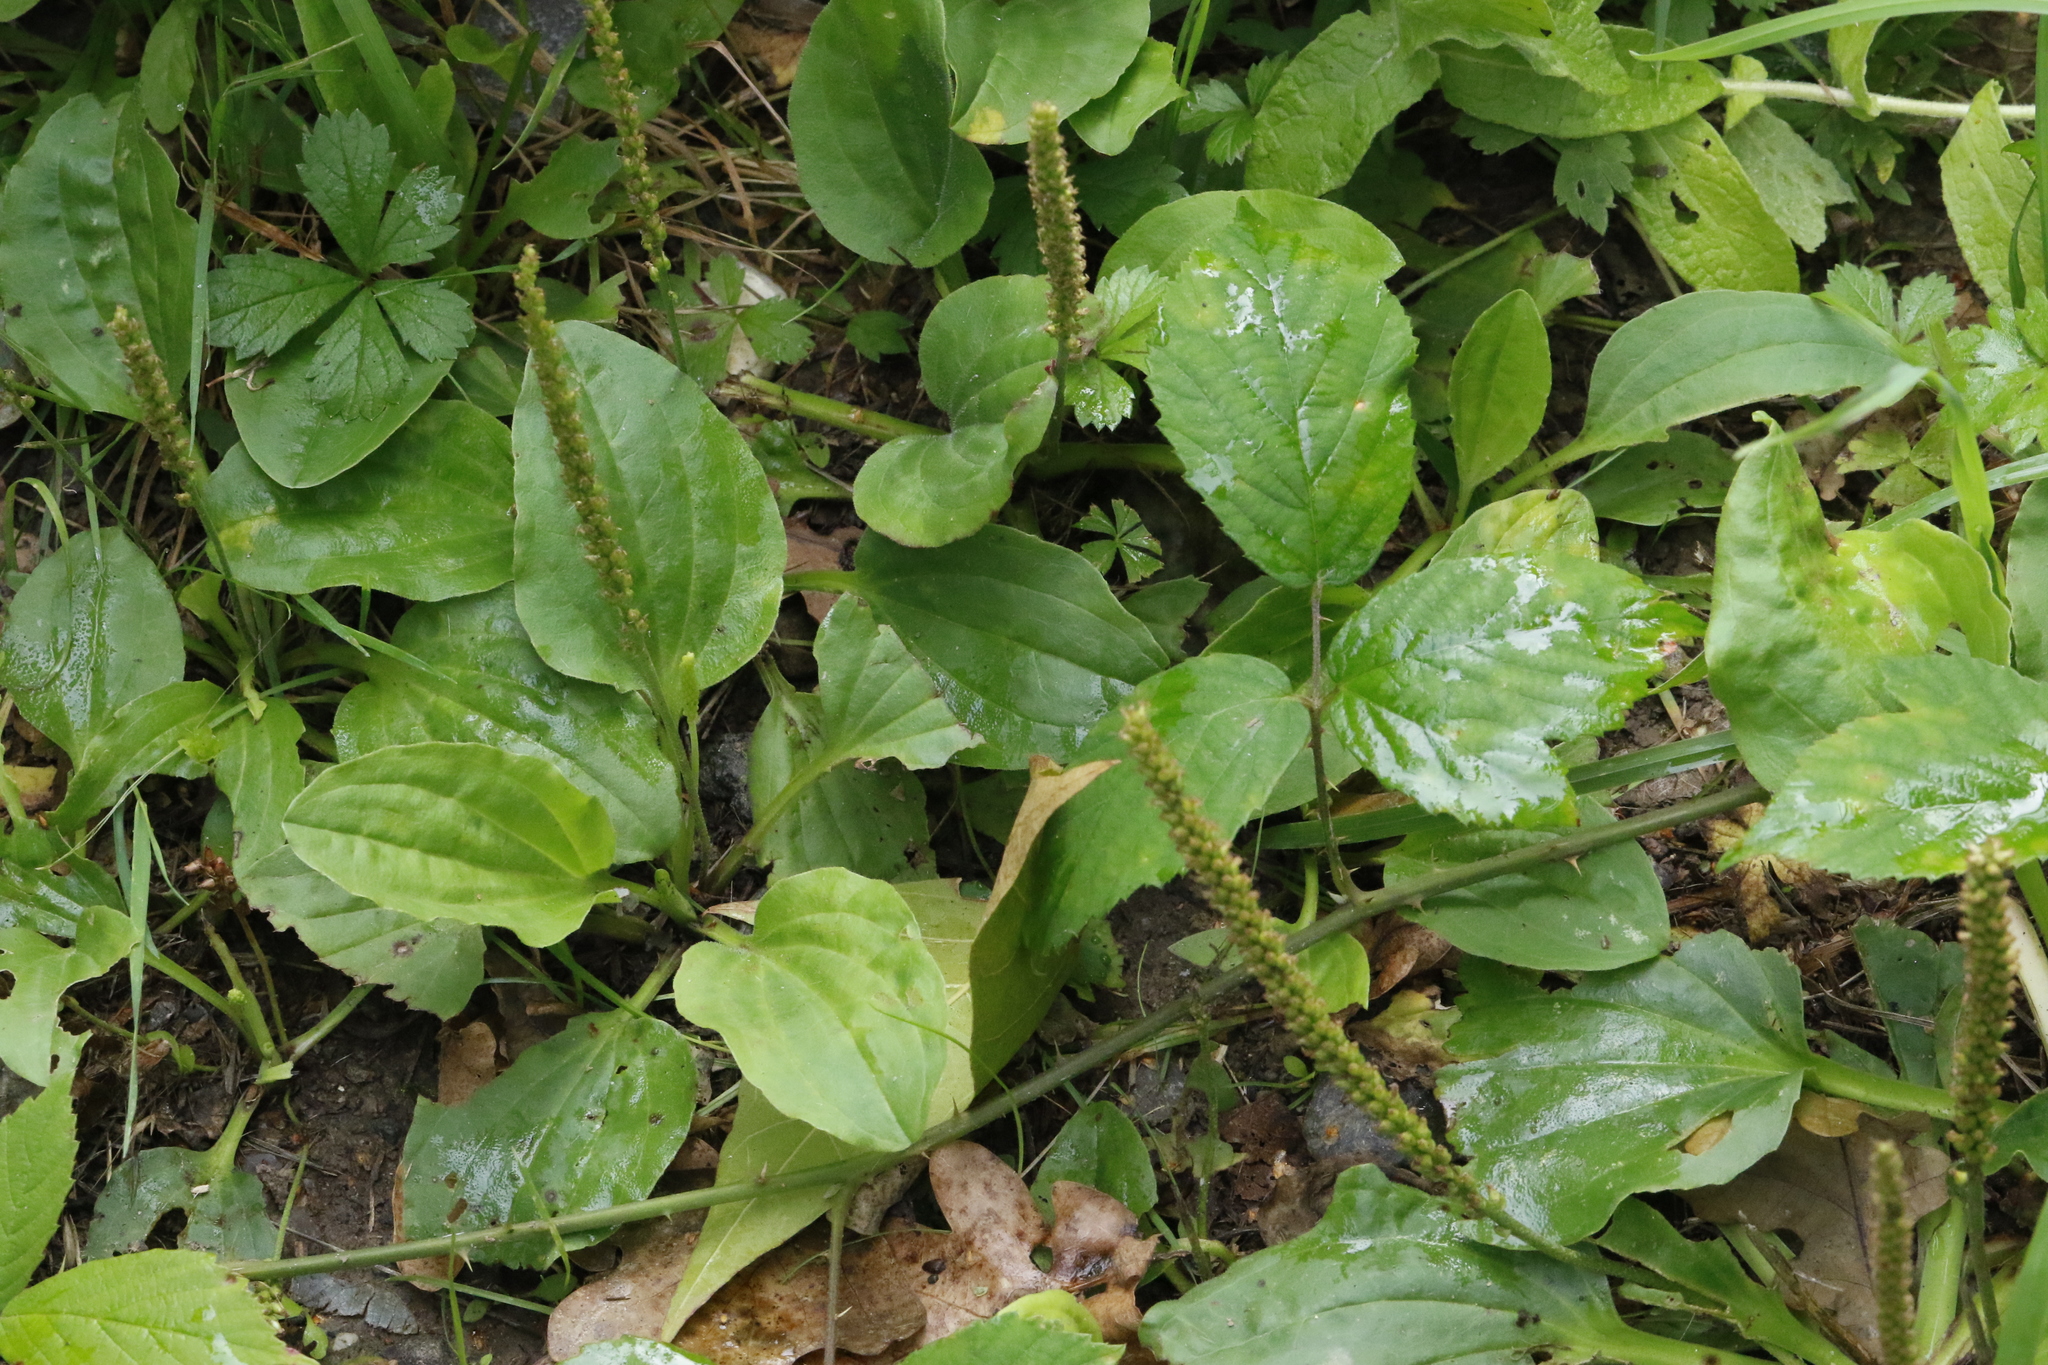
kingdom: Plantae
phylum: Tracheophyta
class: Magnoliopsida
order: Lamiales
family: Plantaginaceae
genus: Plantago
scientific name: Plantago major
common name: Common plantain
